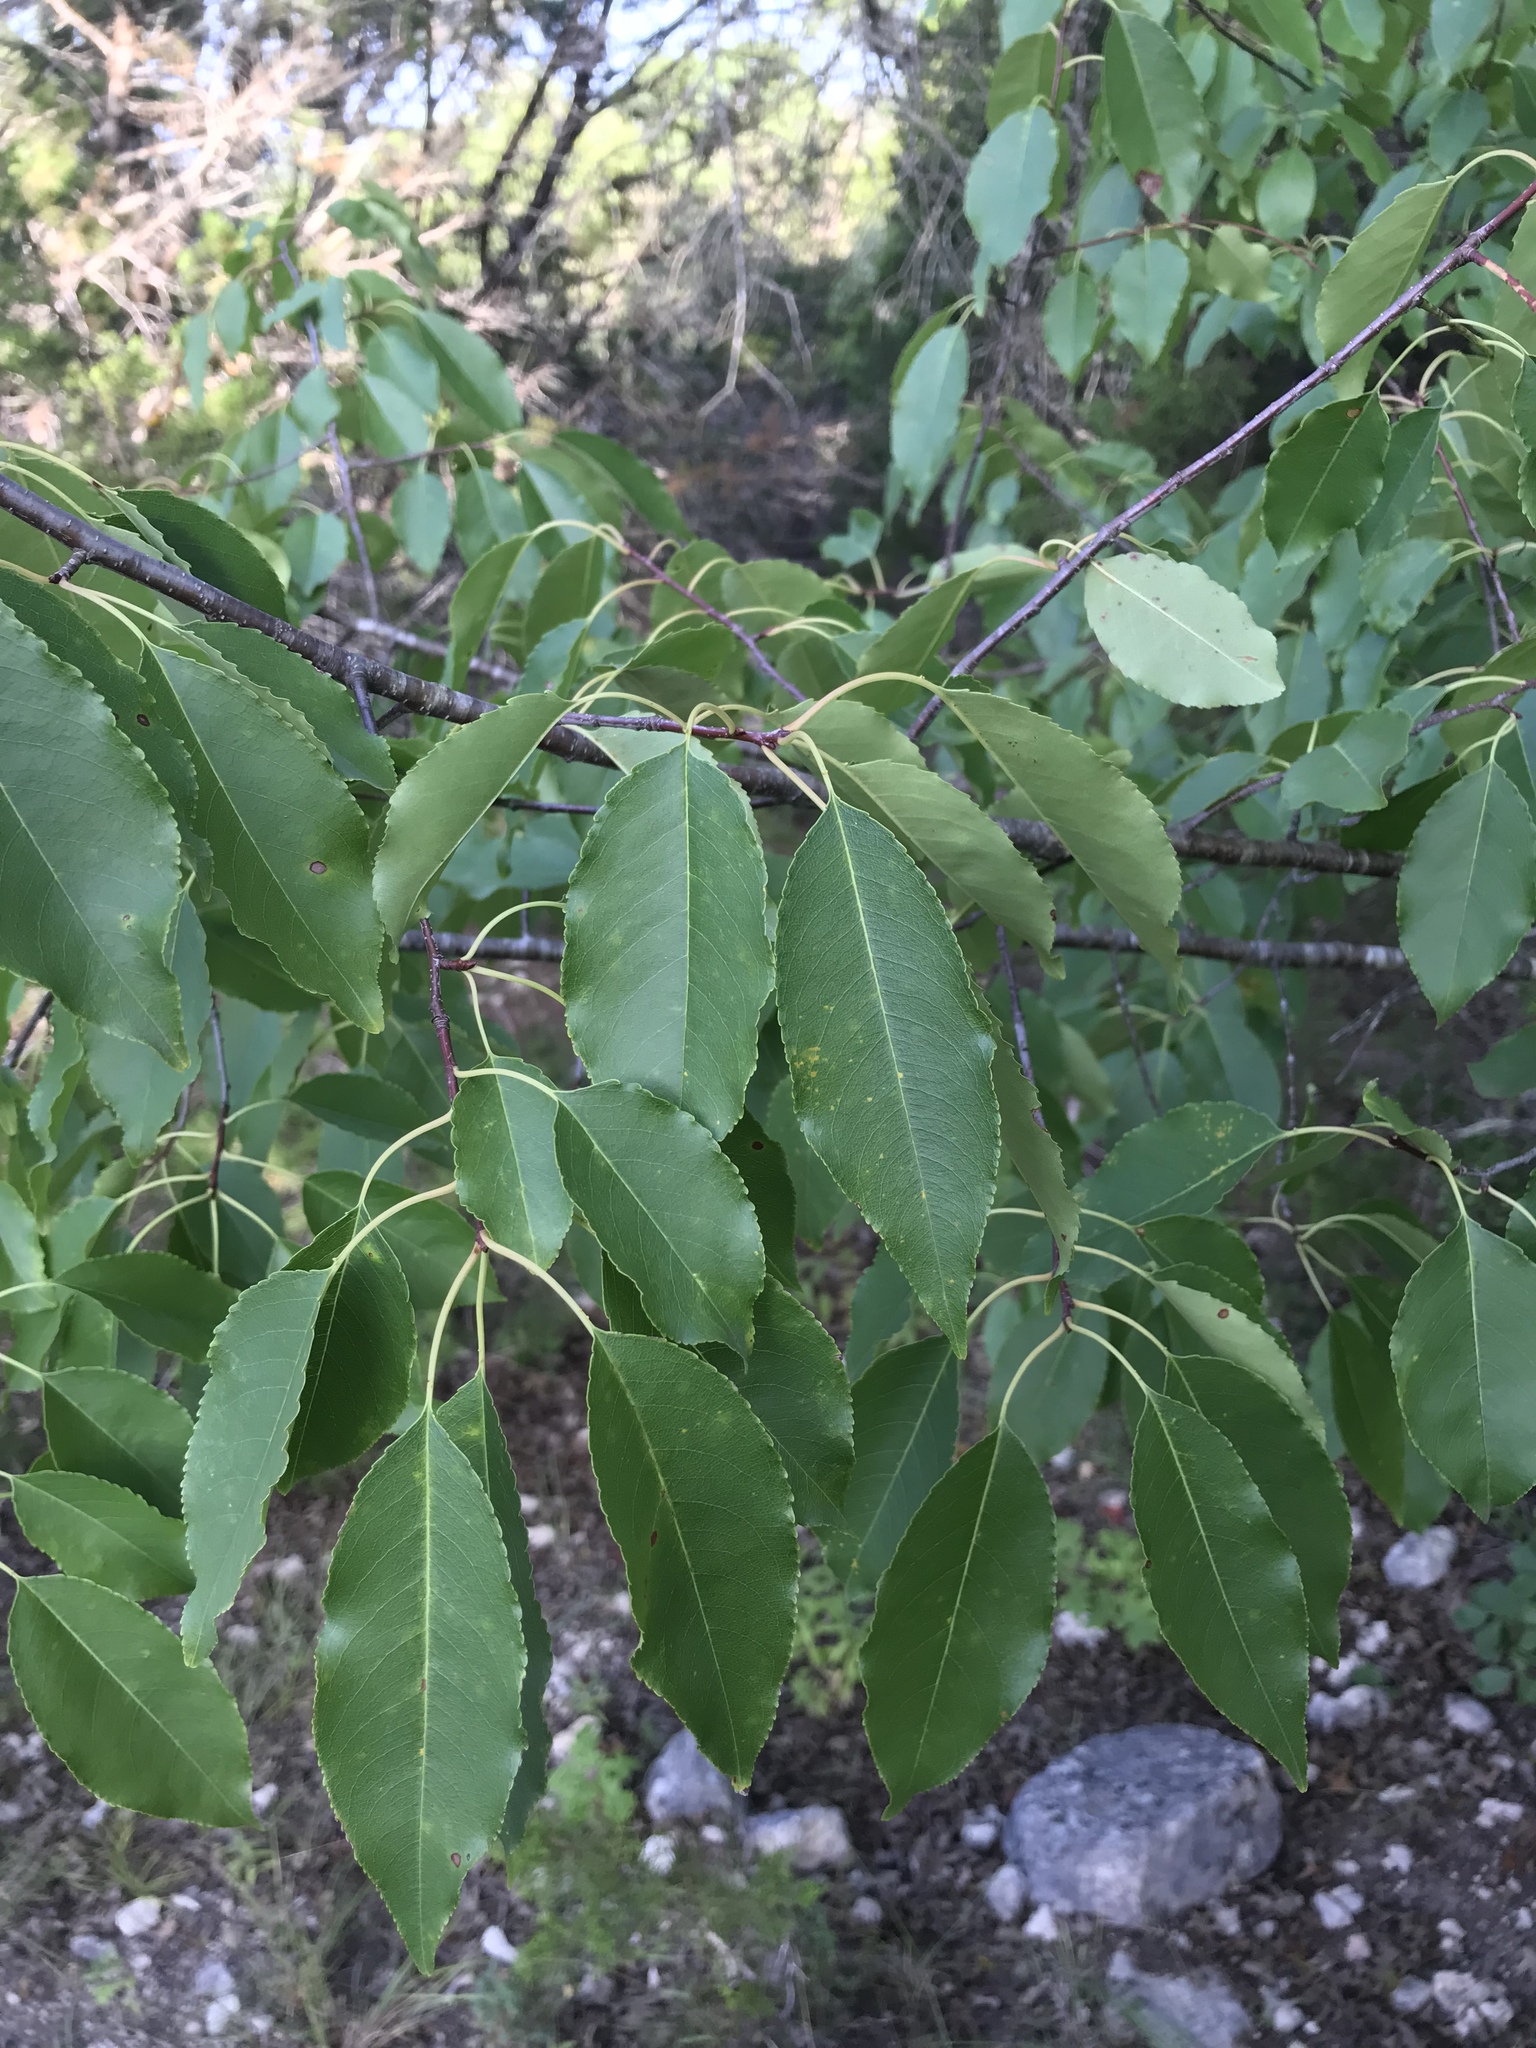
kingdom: Plantae
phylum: Tracheophyta
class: Magnoliopsida
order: Rosales
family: Rosaceae
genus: Prunus
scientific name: Prunus serotina
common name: Black cherry
